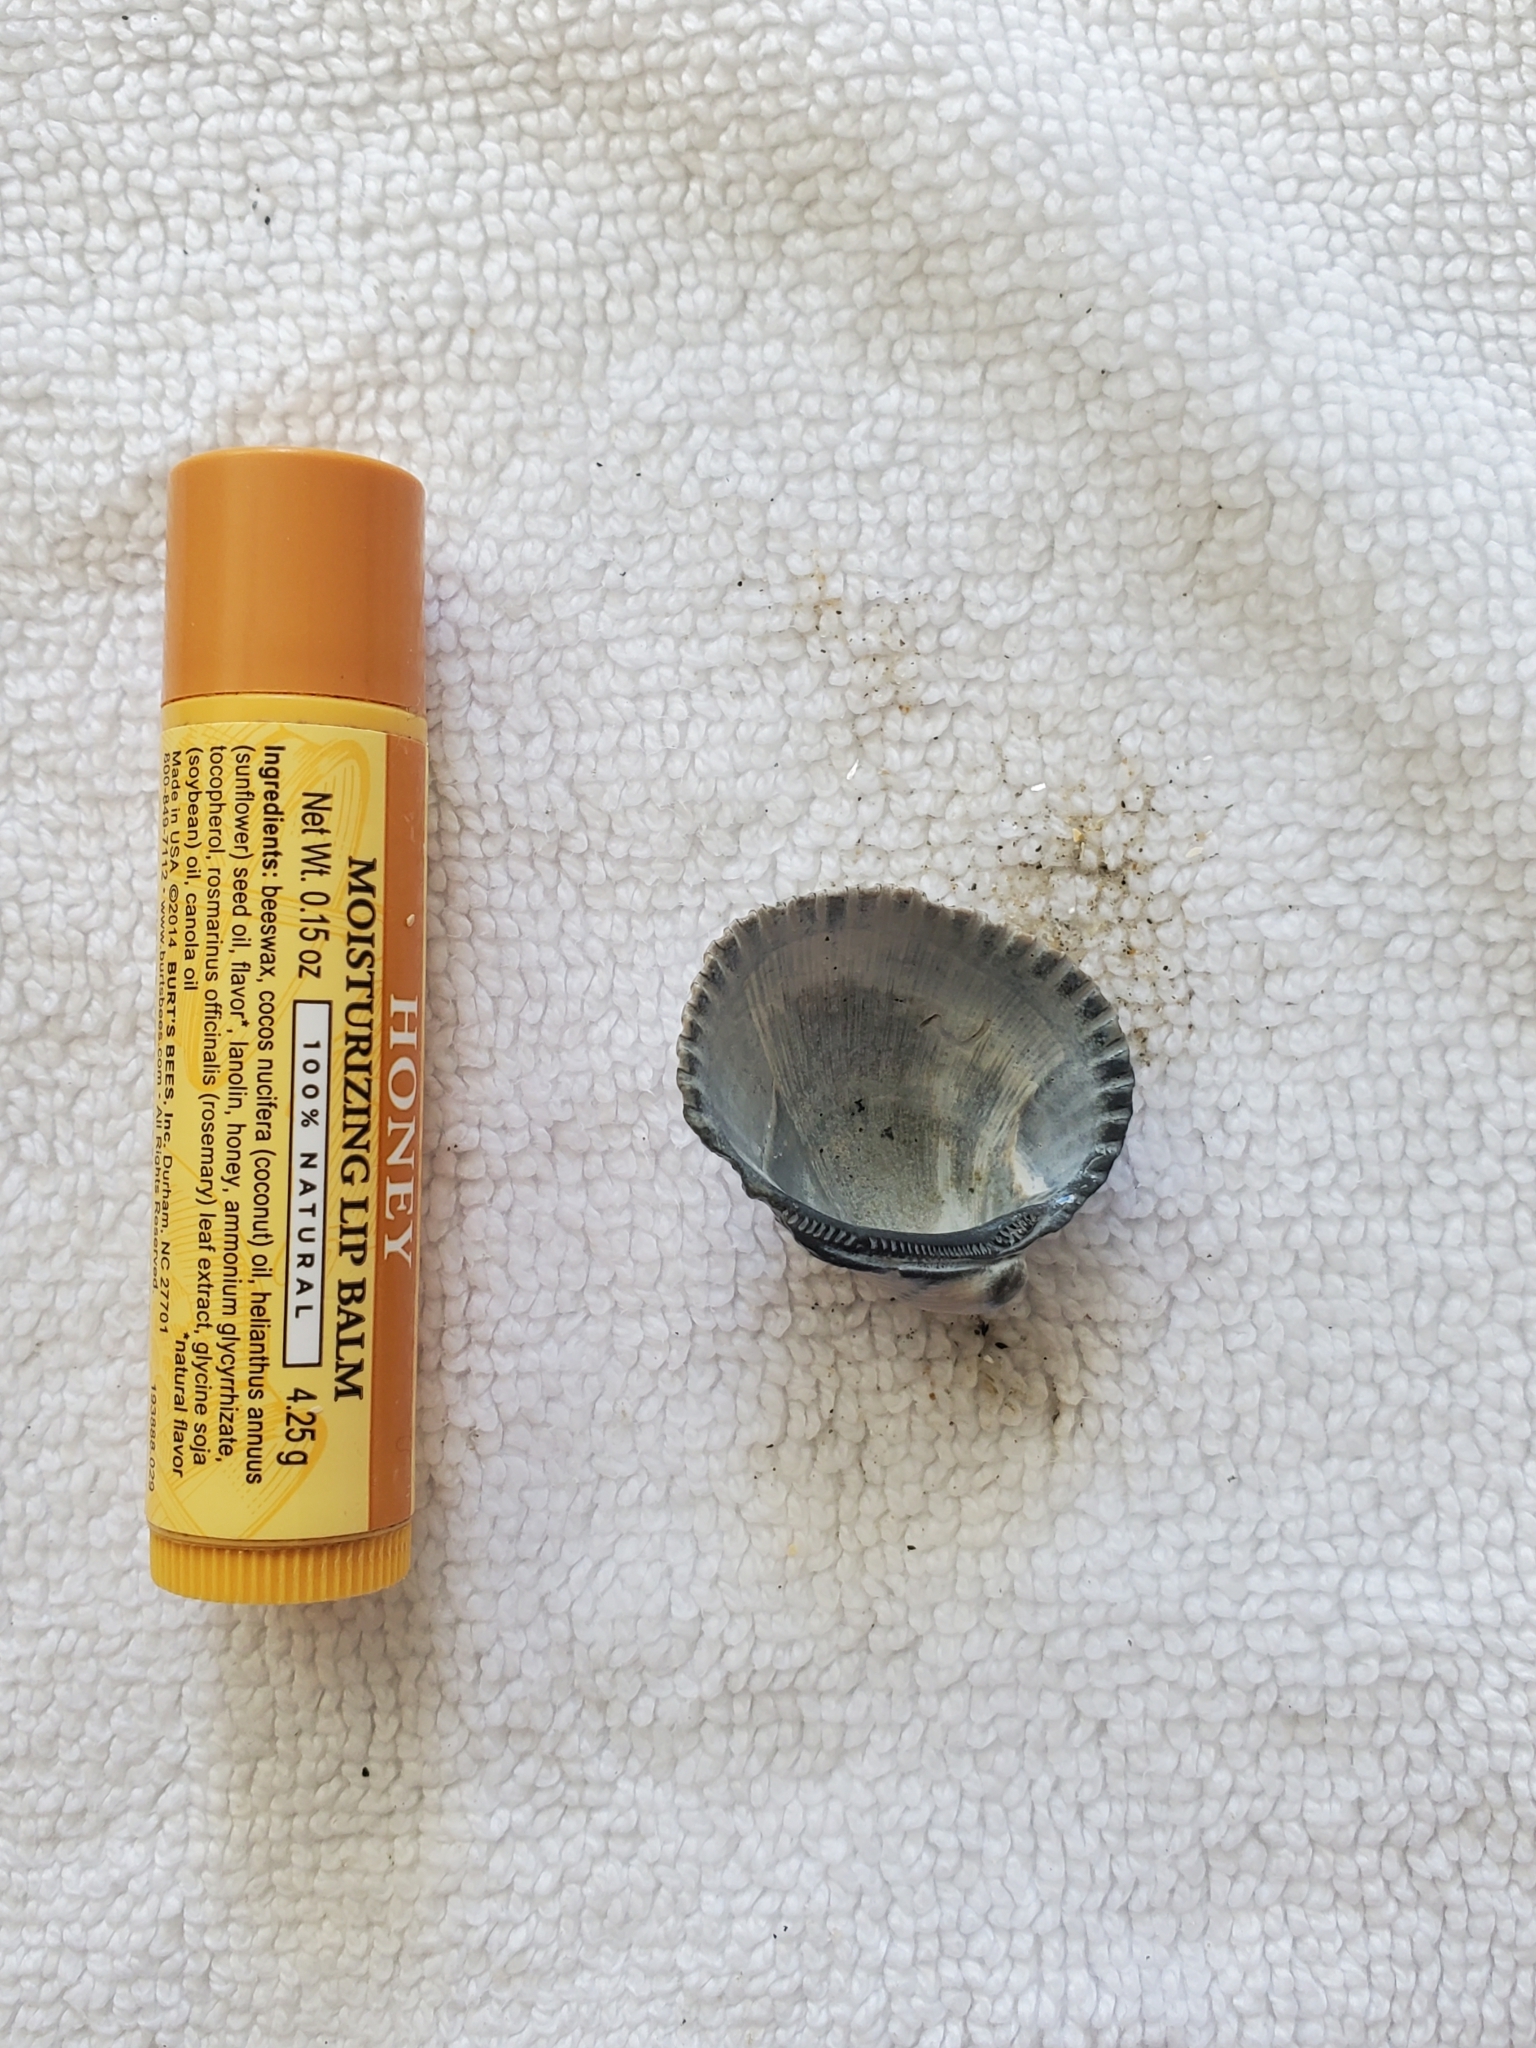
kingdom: Animalia
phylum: Mollusca
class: Bivalvia
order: Arcida
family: Arcidae
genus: Lunarca
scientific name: Lunarca ovalis
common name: Blood ark
